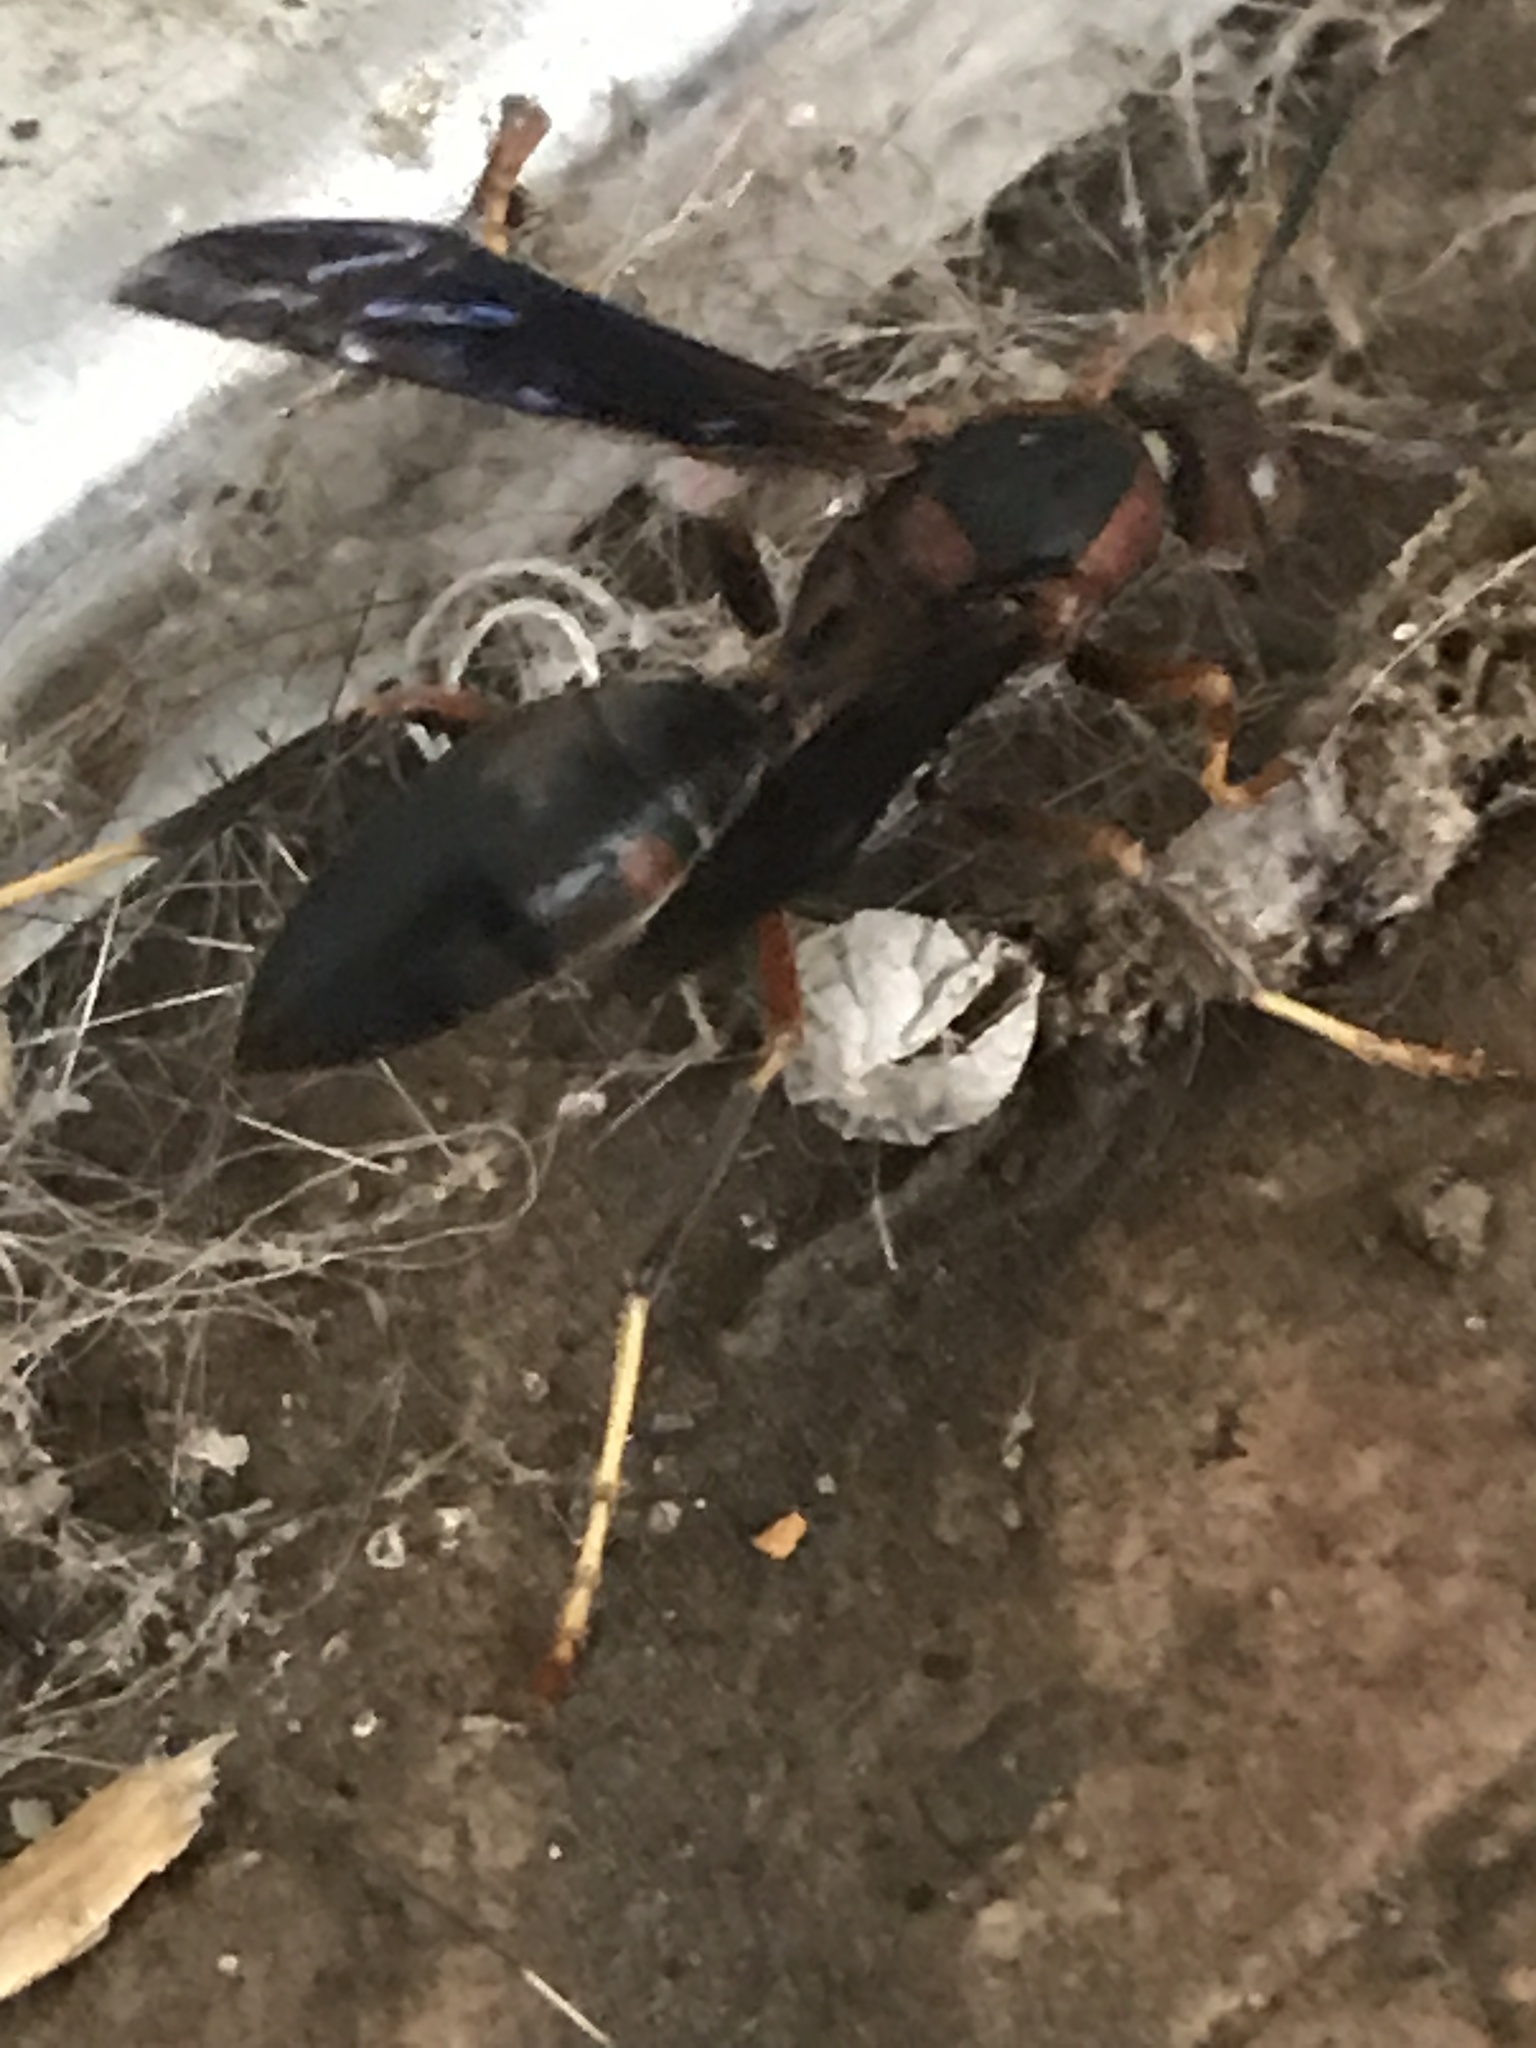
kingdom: Animalia
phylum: Arthropoda
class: Insecta
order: Hymenoptera
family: Eumenidae
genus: Polistes
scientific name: Polistes metricus
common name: Metric paper wasp
